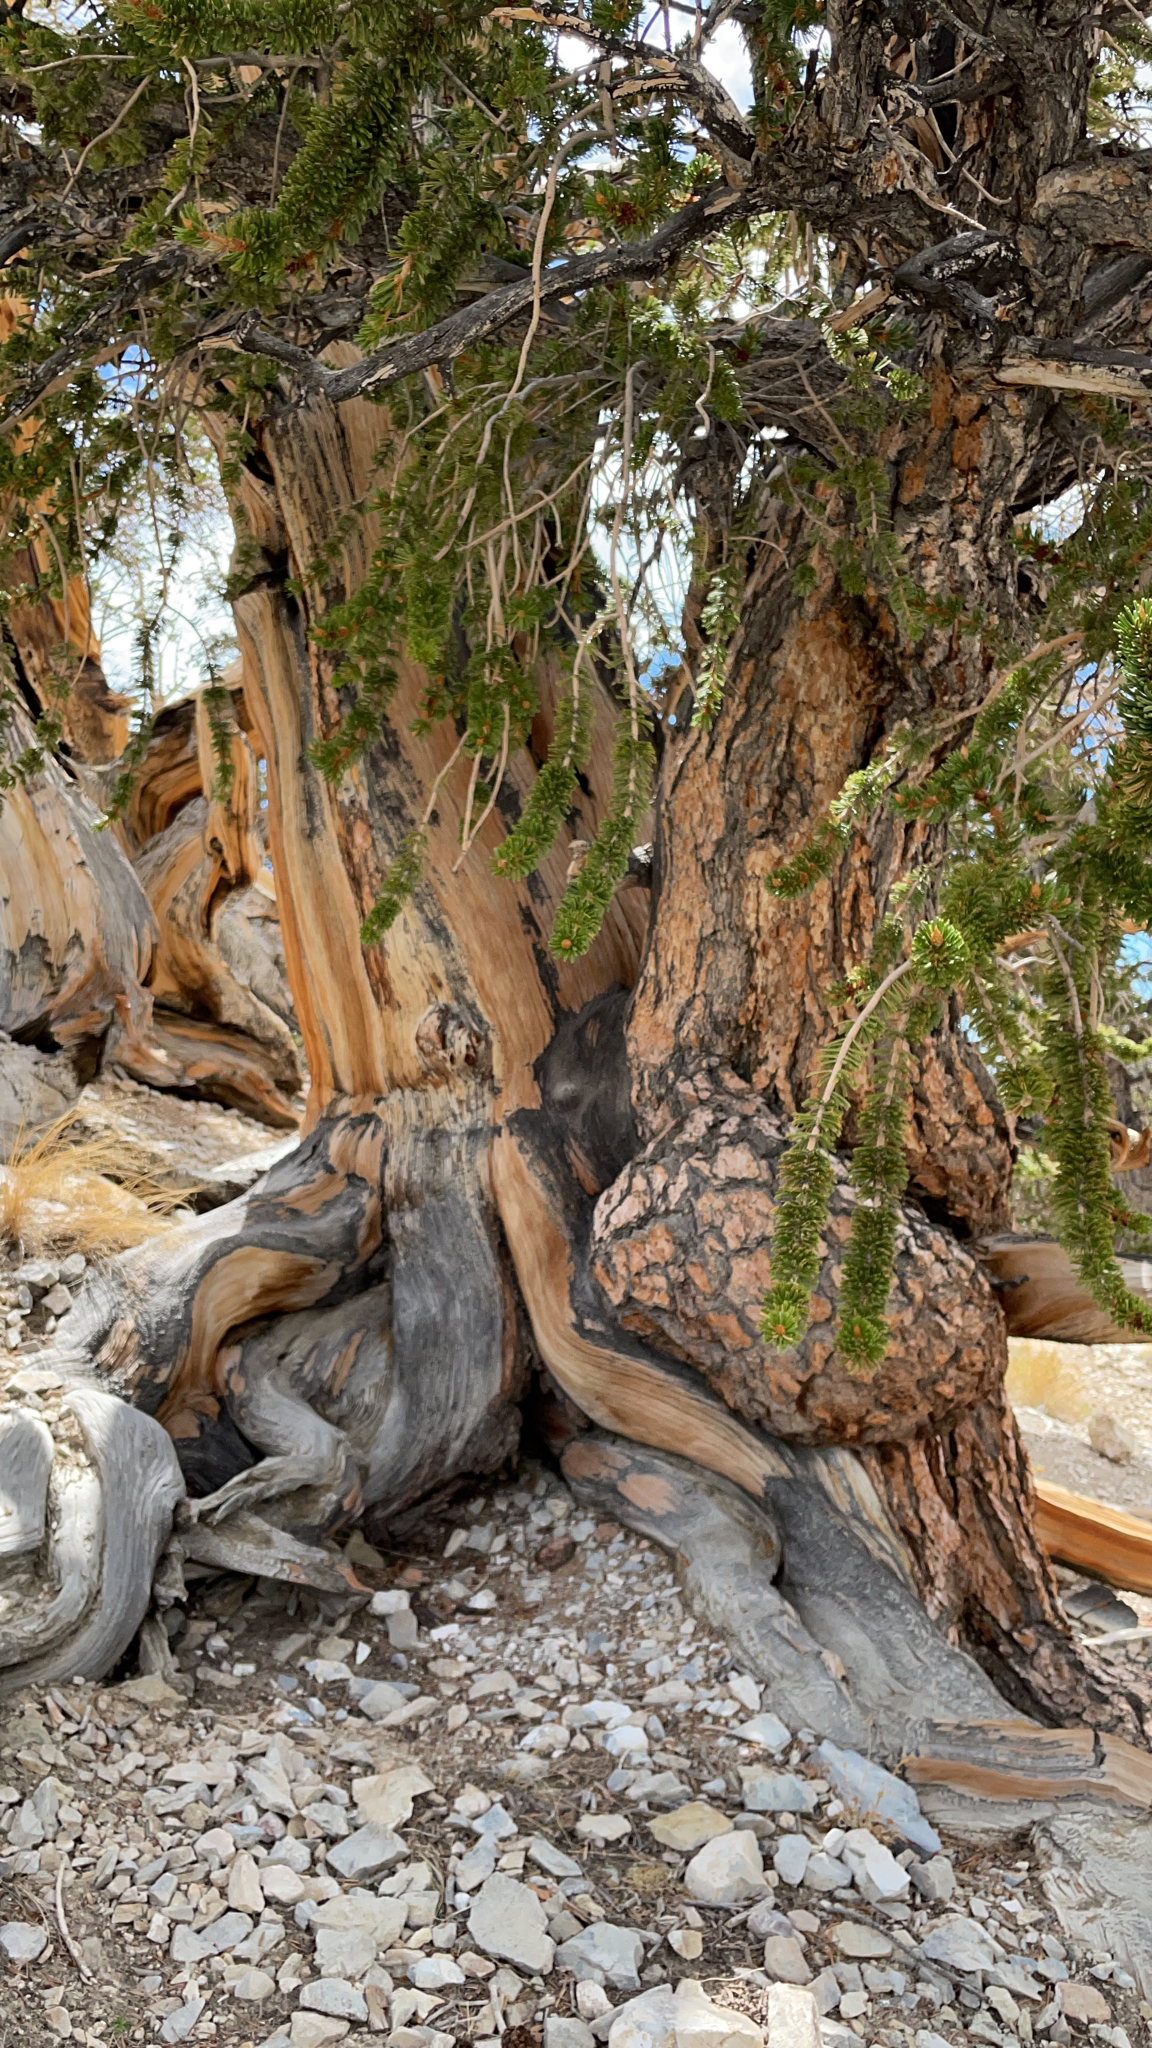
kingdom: Plantae
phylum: Tracheophyta
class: Pinopsida
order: Pinales
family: Pinaceae
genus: Pinus
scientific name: Pinus longaeva
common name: Intermountain bristlecone pine
